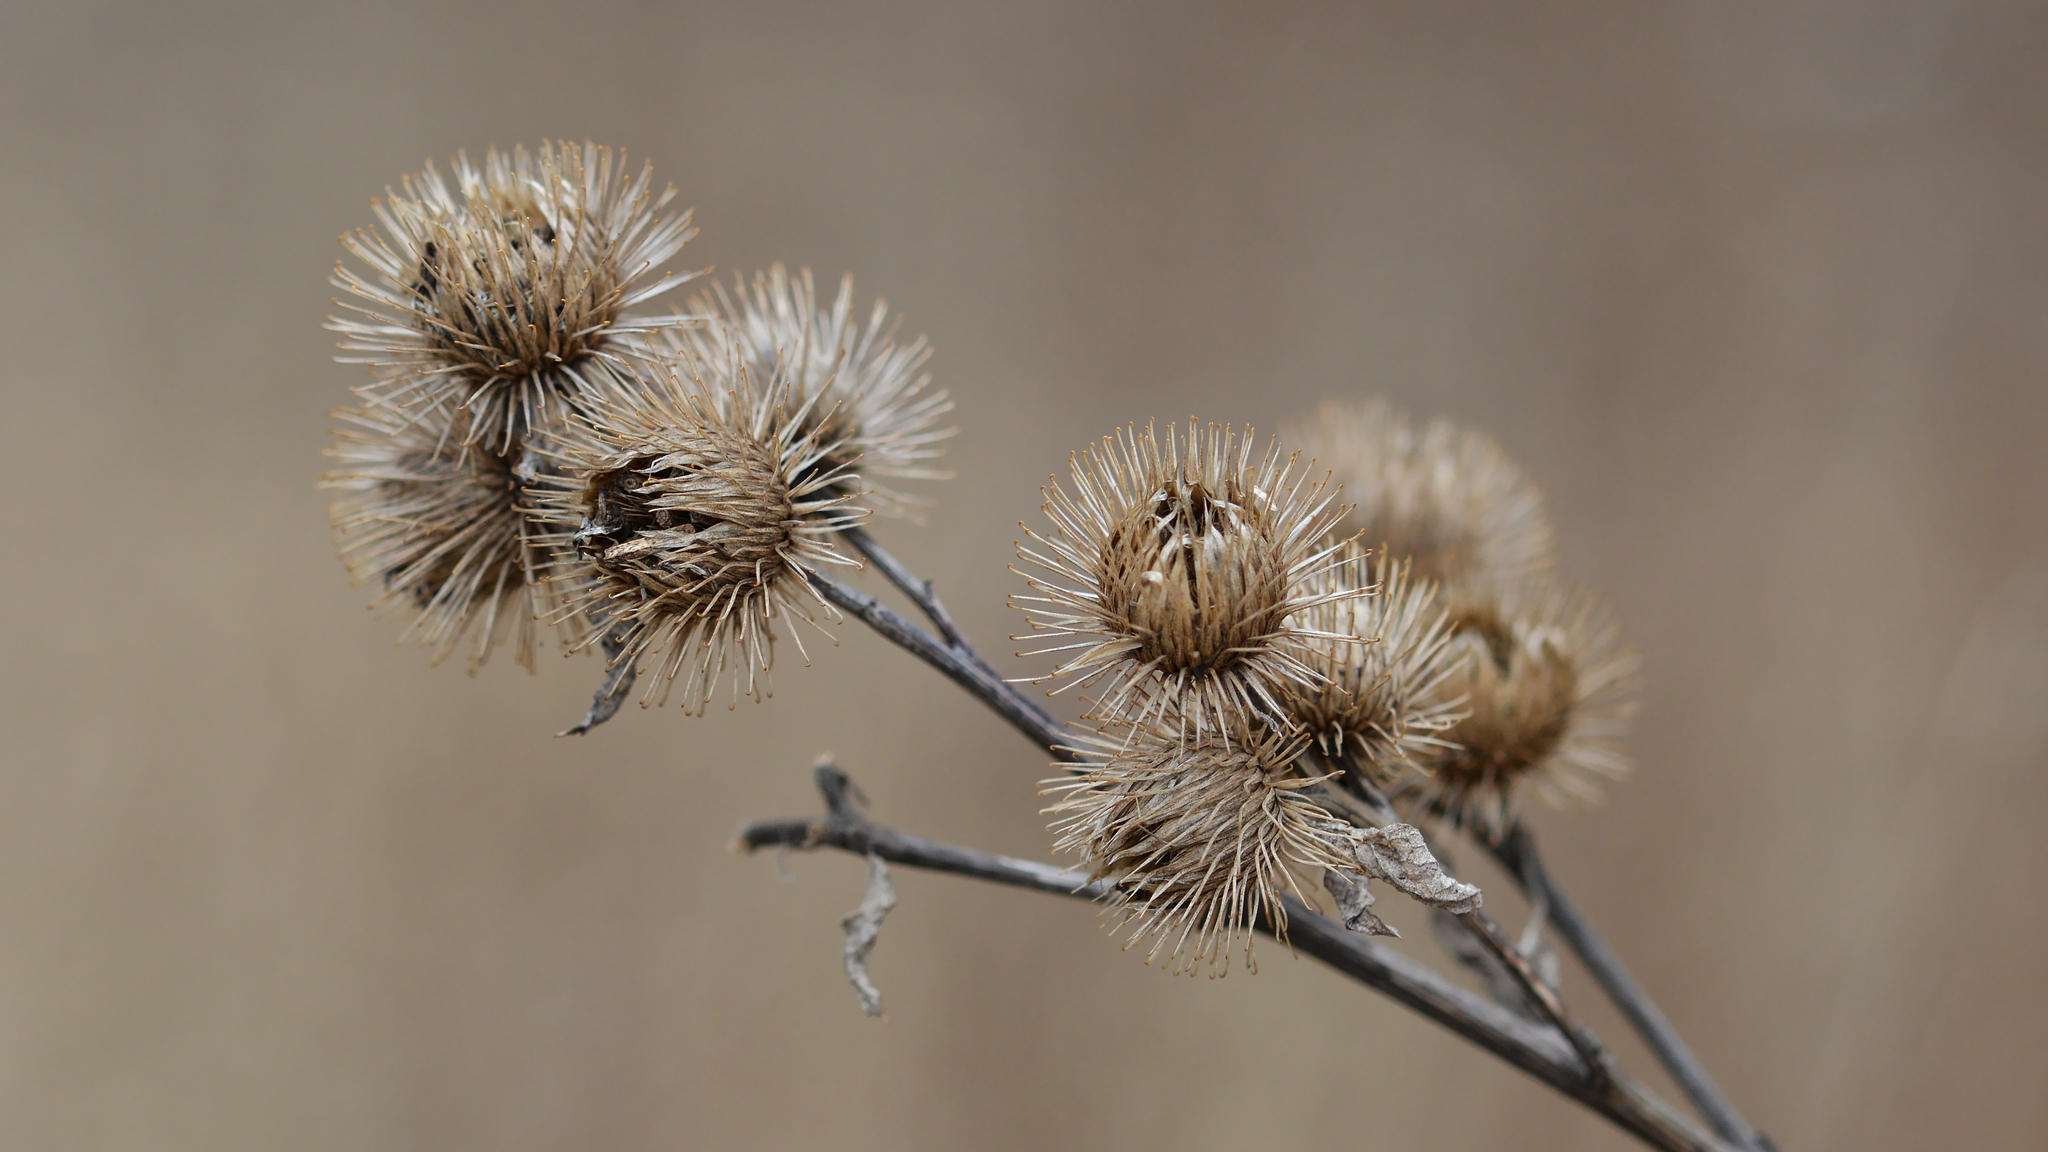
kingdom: Plantae
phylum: Tracheophyta
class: Magnoliopsida
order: Asterales
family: Asteraceae
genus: Arctium
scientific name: Arctium lappa
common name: Greater burdock
